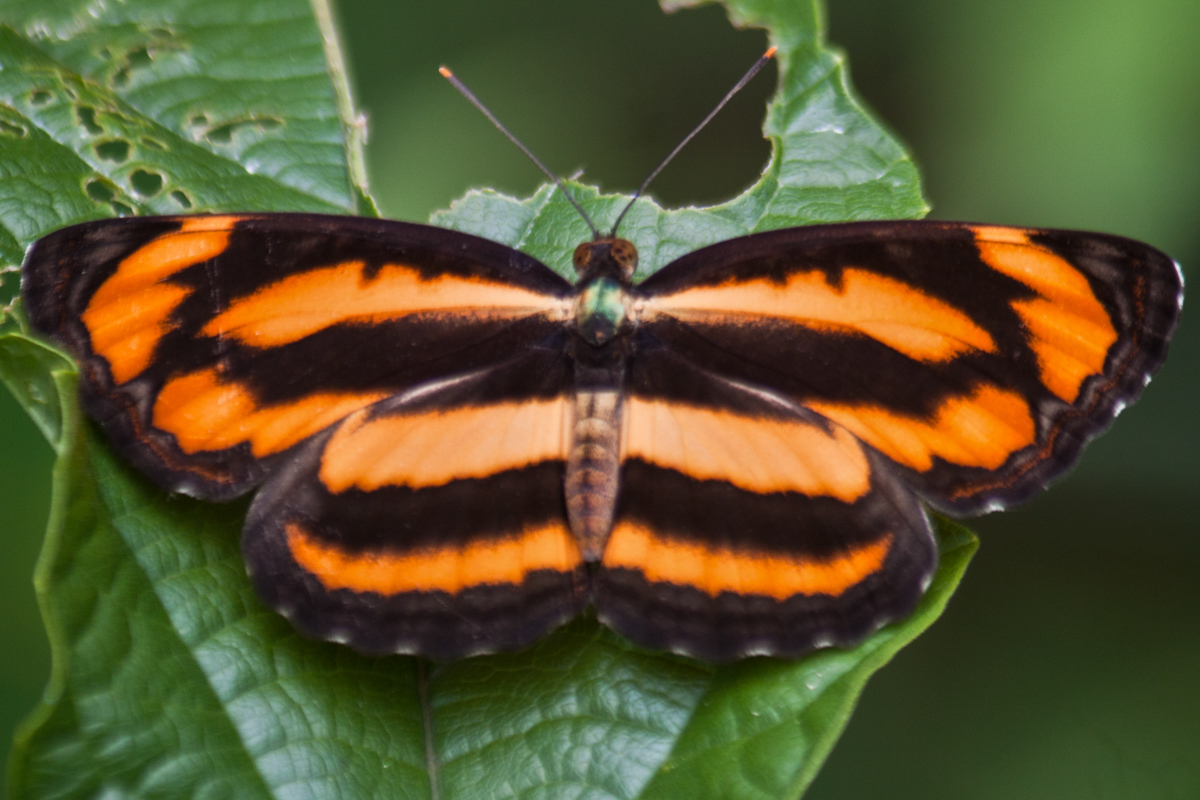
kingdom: Animalia
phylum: Arthropoda
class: Insecta
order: Lepidoptera
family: Nymphalidae
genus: Pantoporia
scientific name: Pantoporia hordonia
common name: Common lascar
